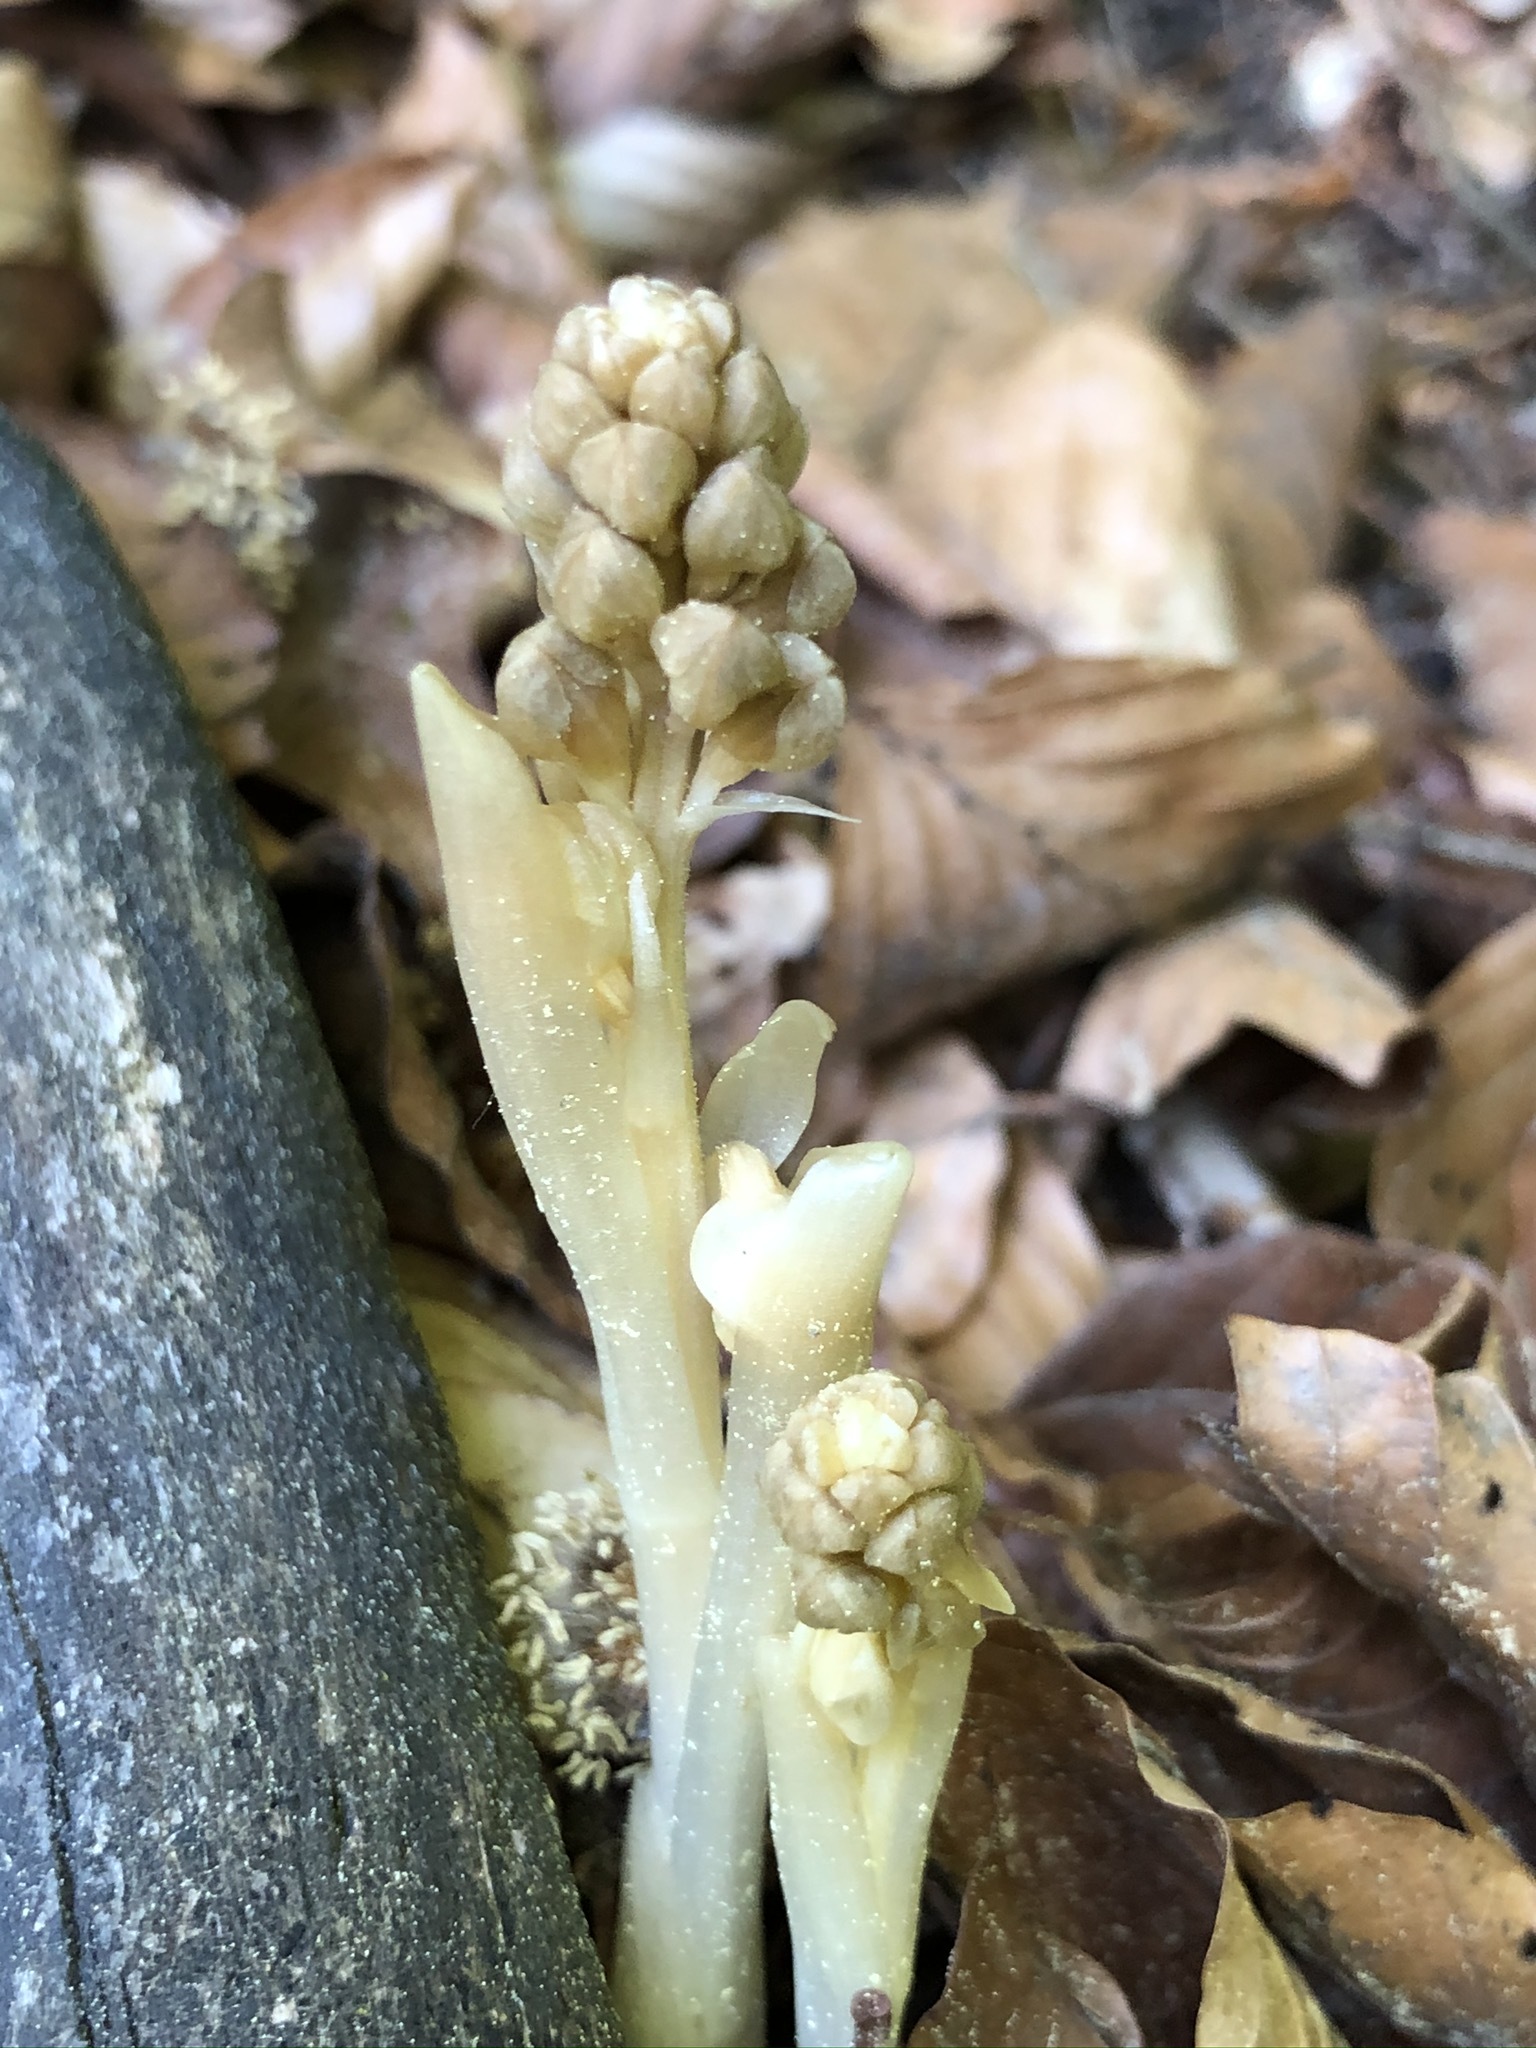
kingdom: Plantae
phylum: Tracheophyta
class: Liliopsida
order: Asparagales
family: Orchidaceae
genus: Neottia
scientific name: Neottia nidus-avis
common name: Bird's-nest orchid
